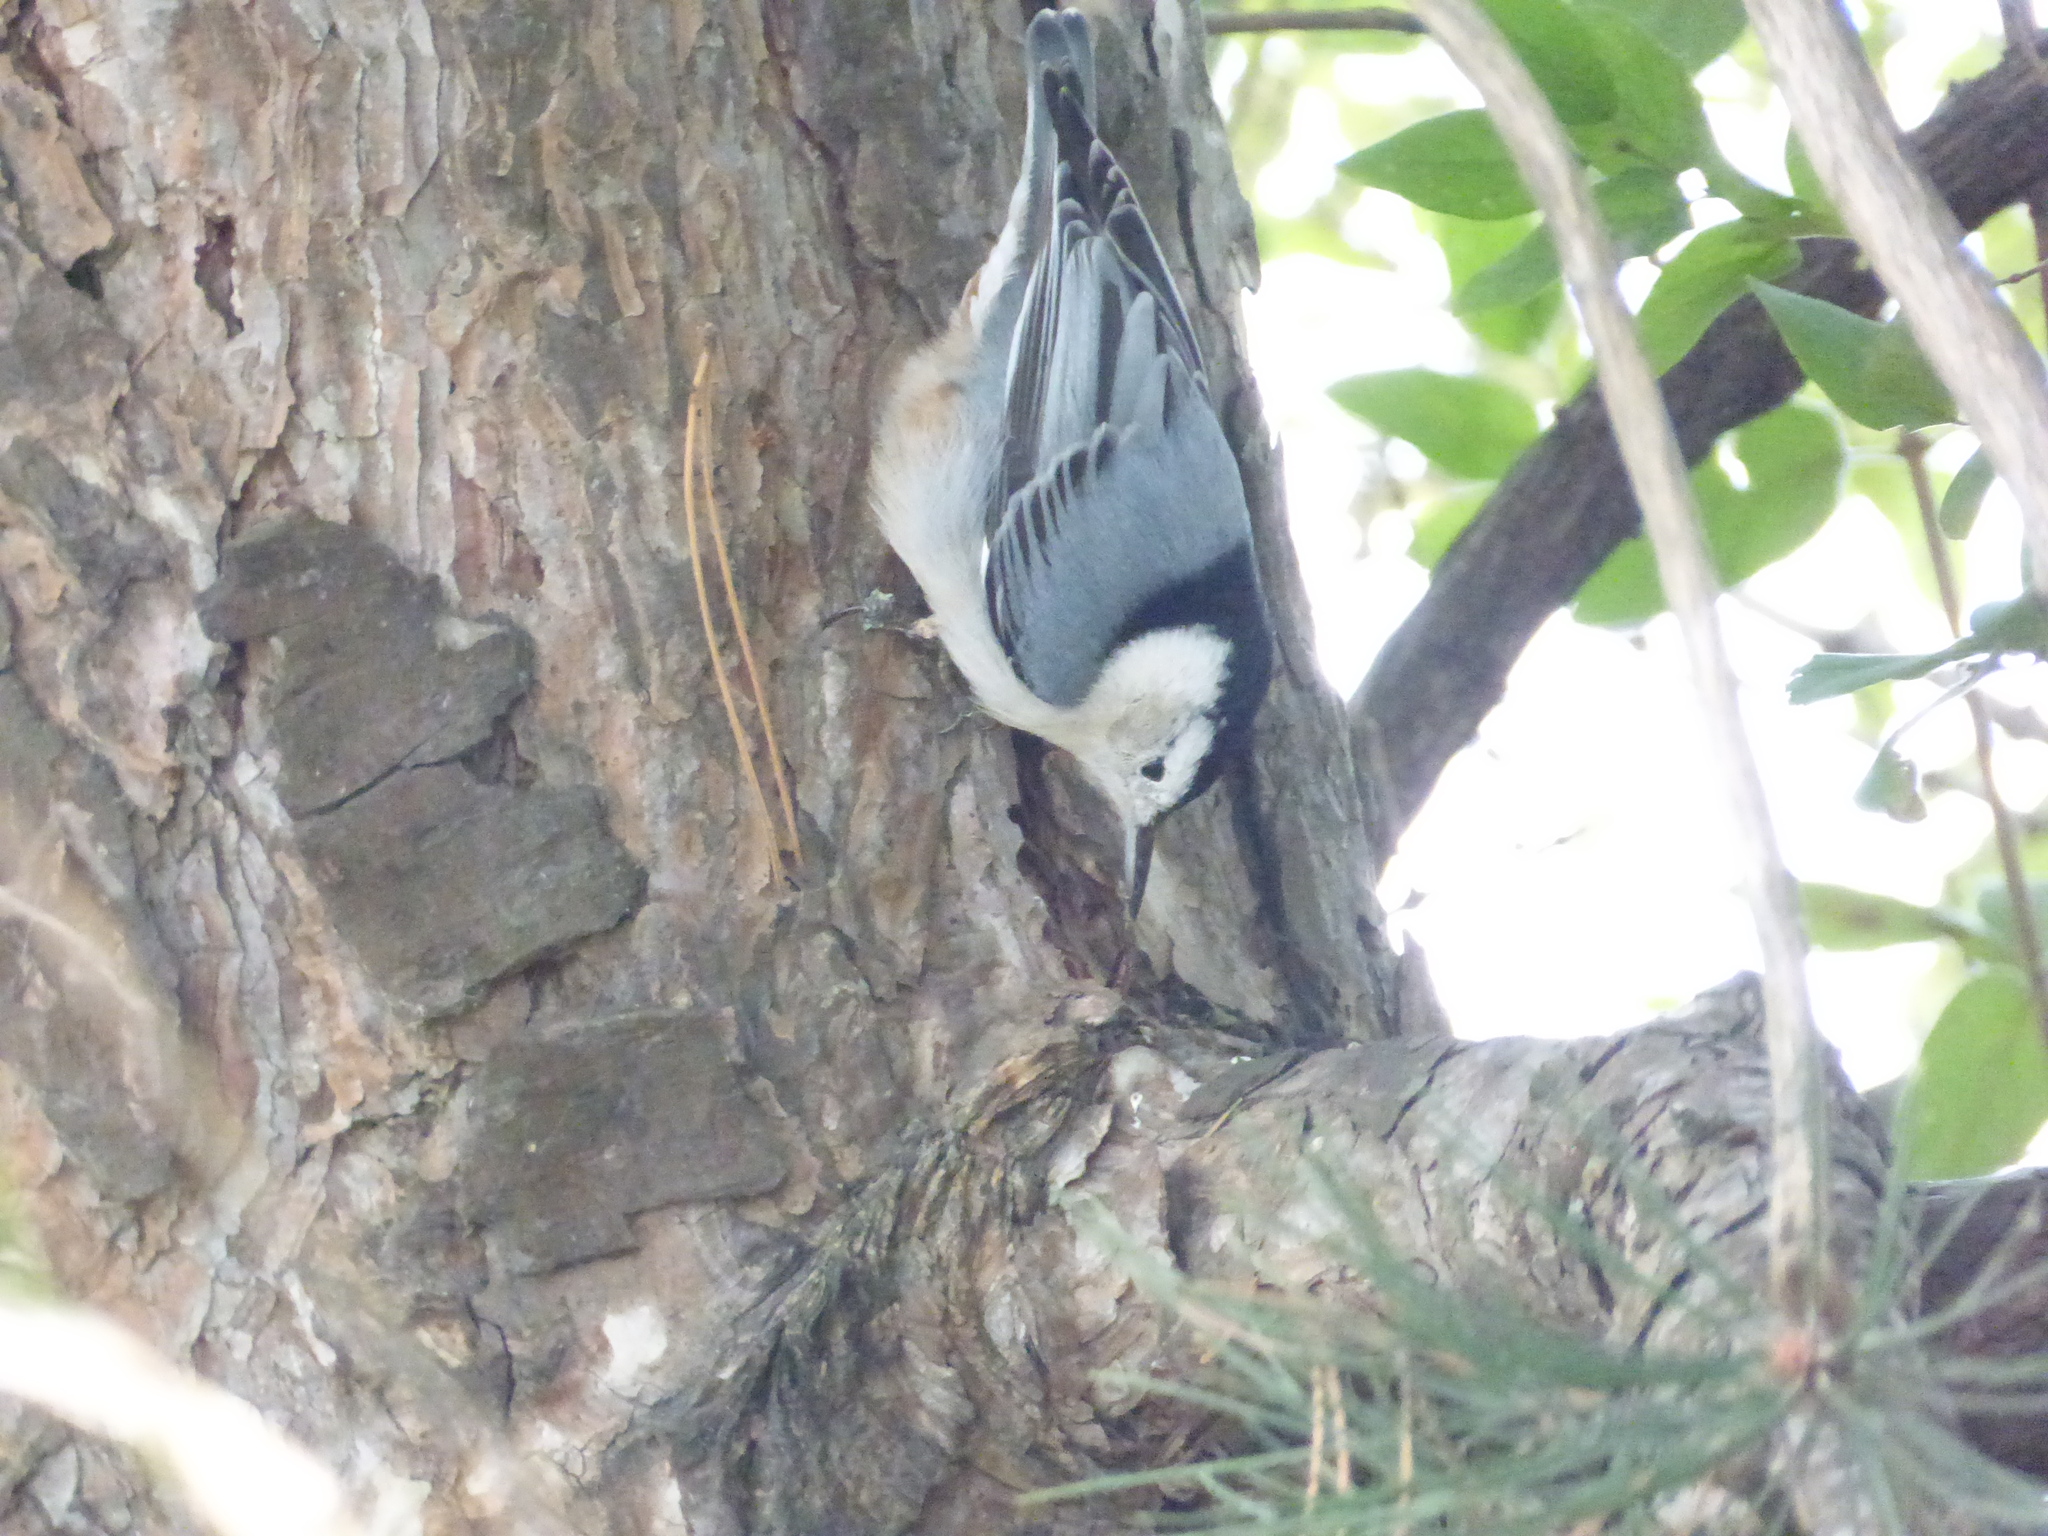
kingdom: Animalia
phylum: Chordata
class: Aves
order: Passeriformes
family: Sittidae
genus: Sitta
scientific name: Sitta carolinensis
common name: White-breasted nuthatch
